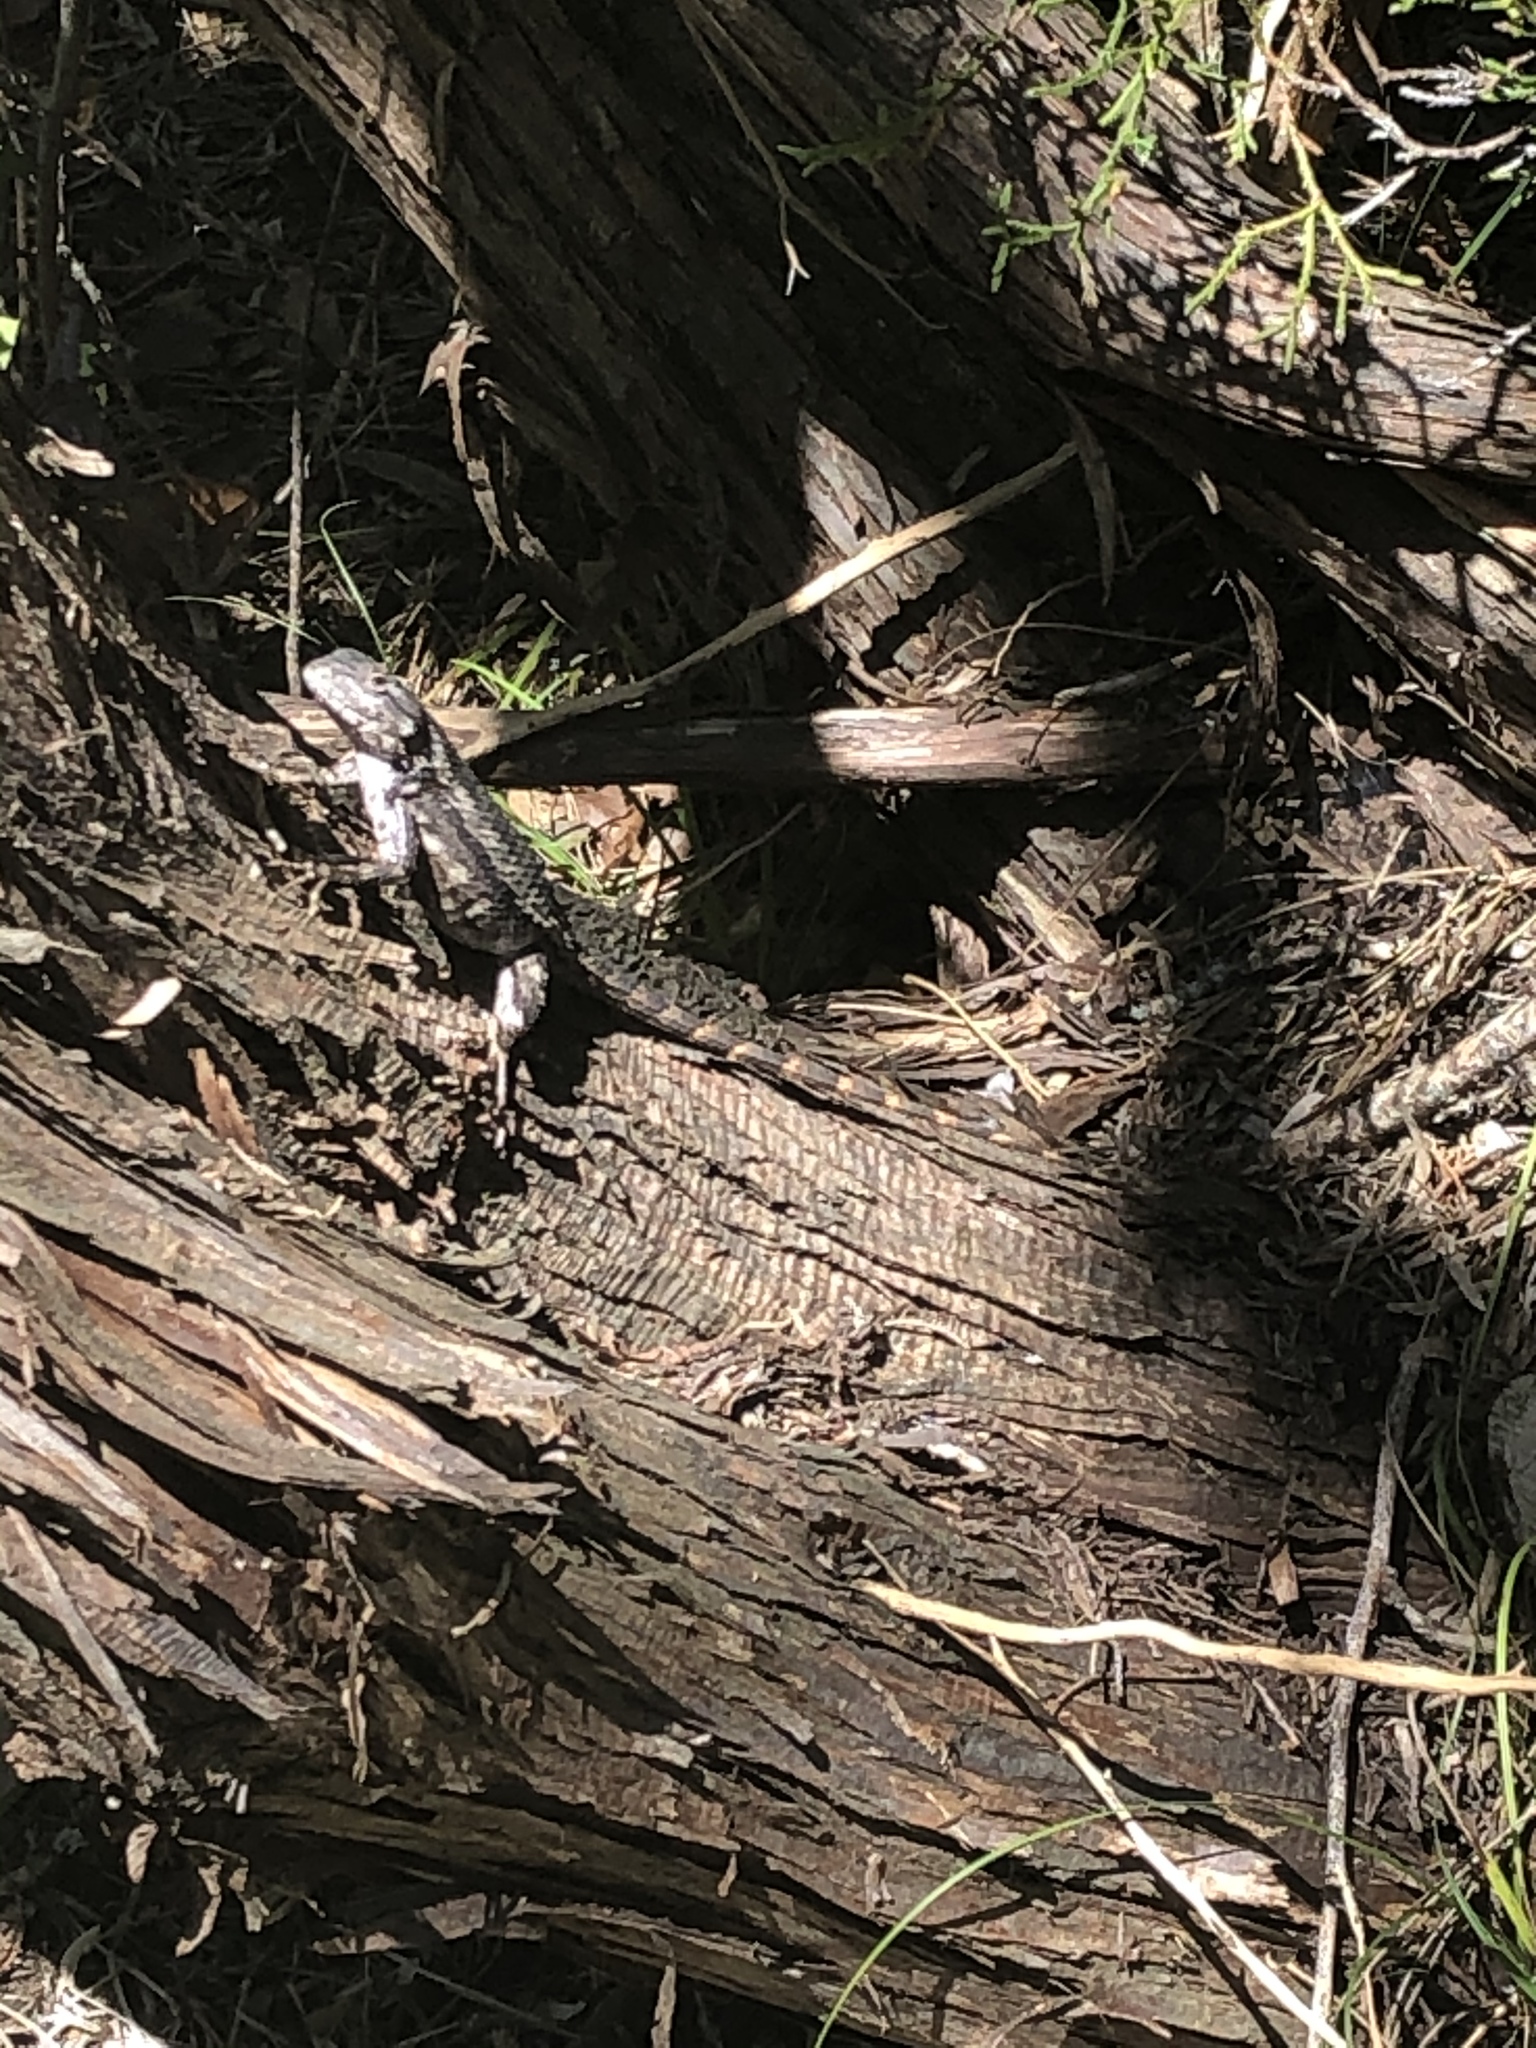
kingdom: Animalia
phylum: Chordata
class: Squamata
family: Phrynosomatidae
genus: Sceloporus
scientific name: Sceloporus olivaceus
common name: Texas spiny lizard
